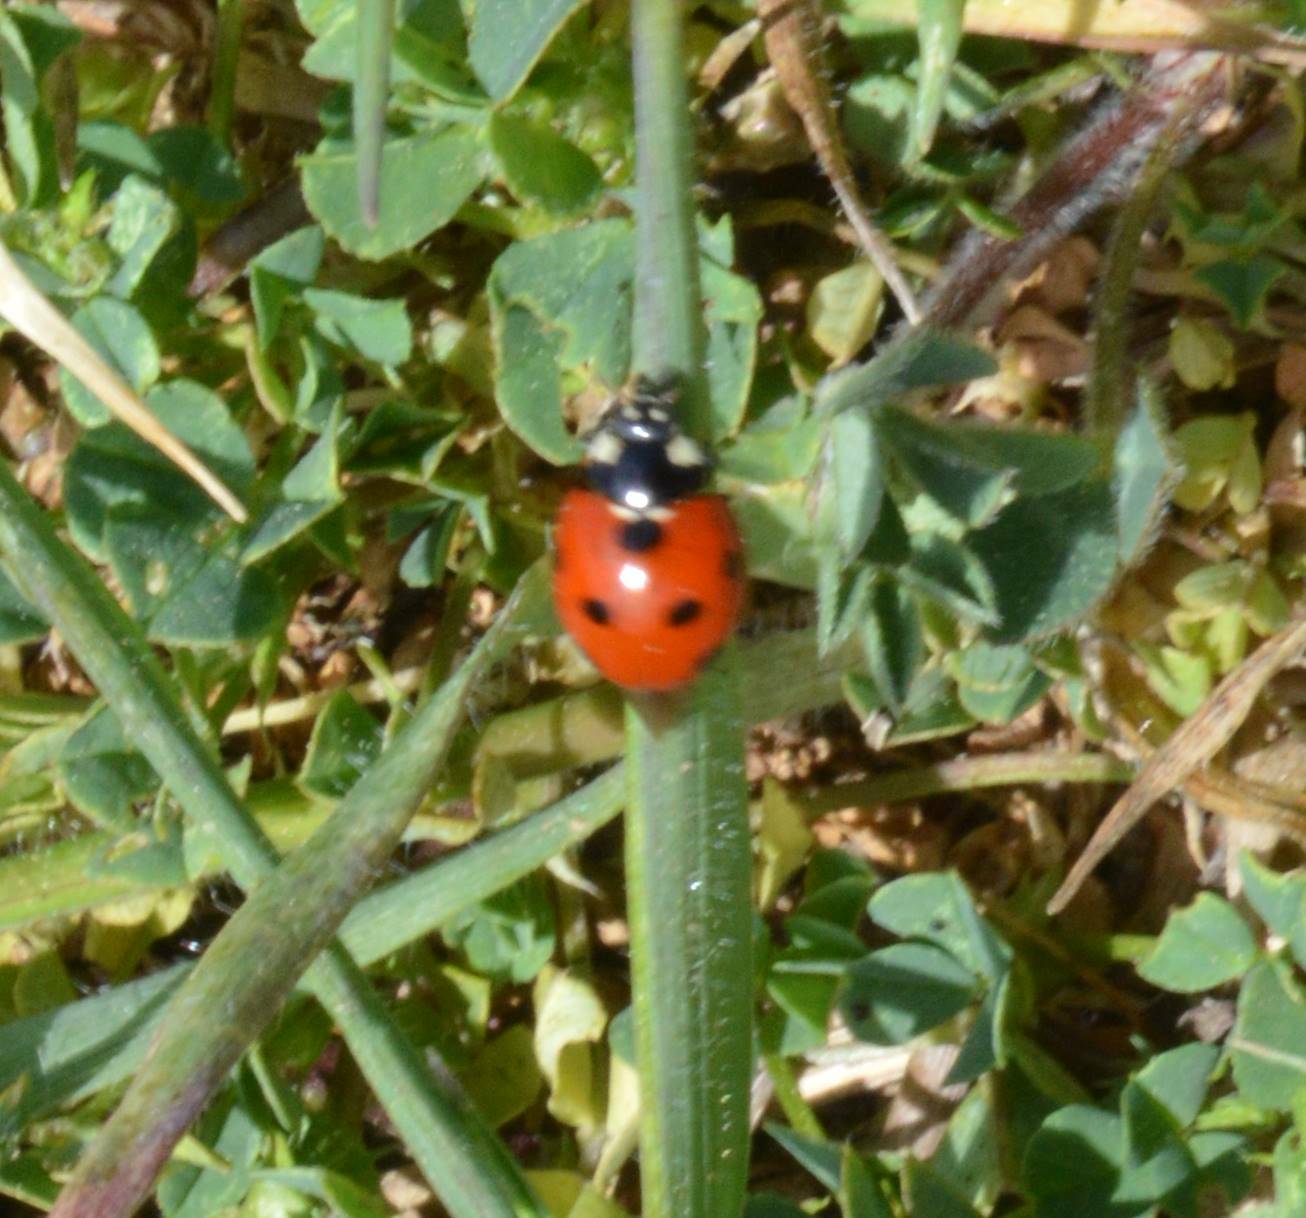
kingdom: Animalia
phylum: Arthropoda
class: Insecta
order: Coleoptera
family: Coccinellidae
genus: Coccinella
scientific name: Coccinella algerica
